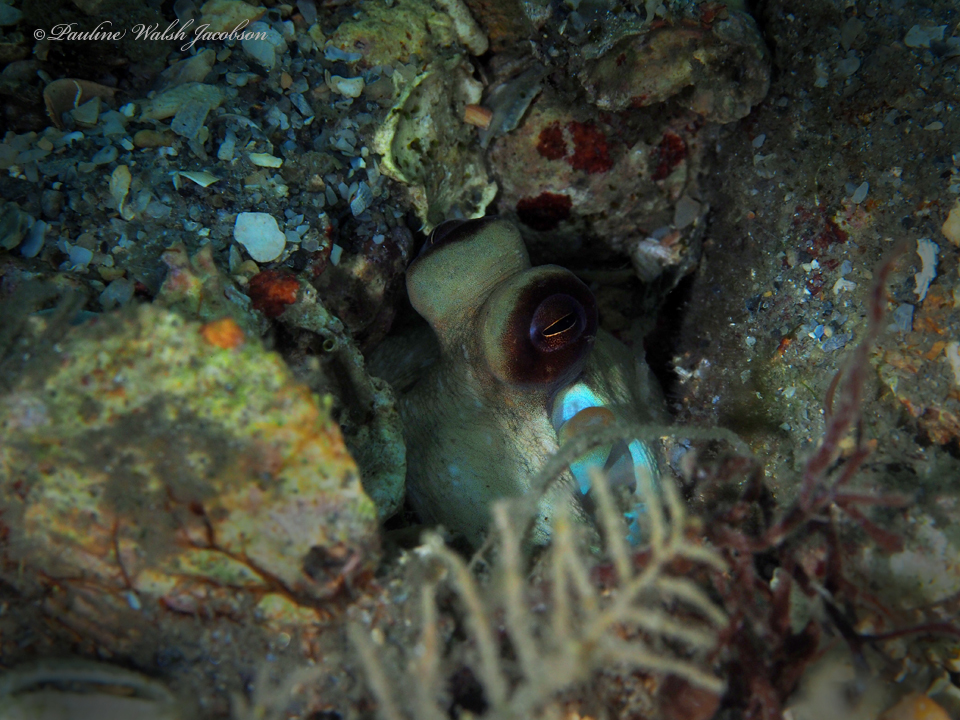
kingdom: Animalia
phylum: Mollusca
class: Cephalopoda
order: Octopoda
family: Octopodidae
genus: Octopus
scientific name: Octopus americanus
